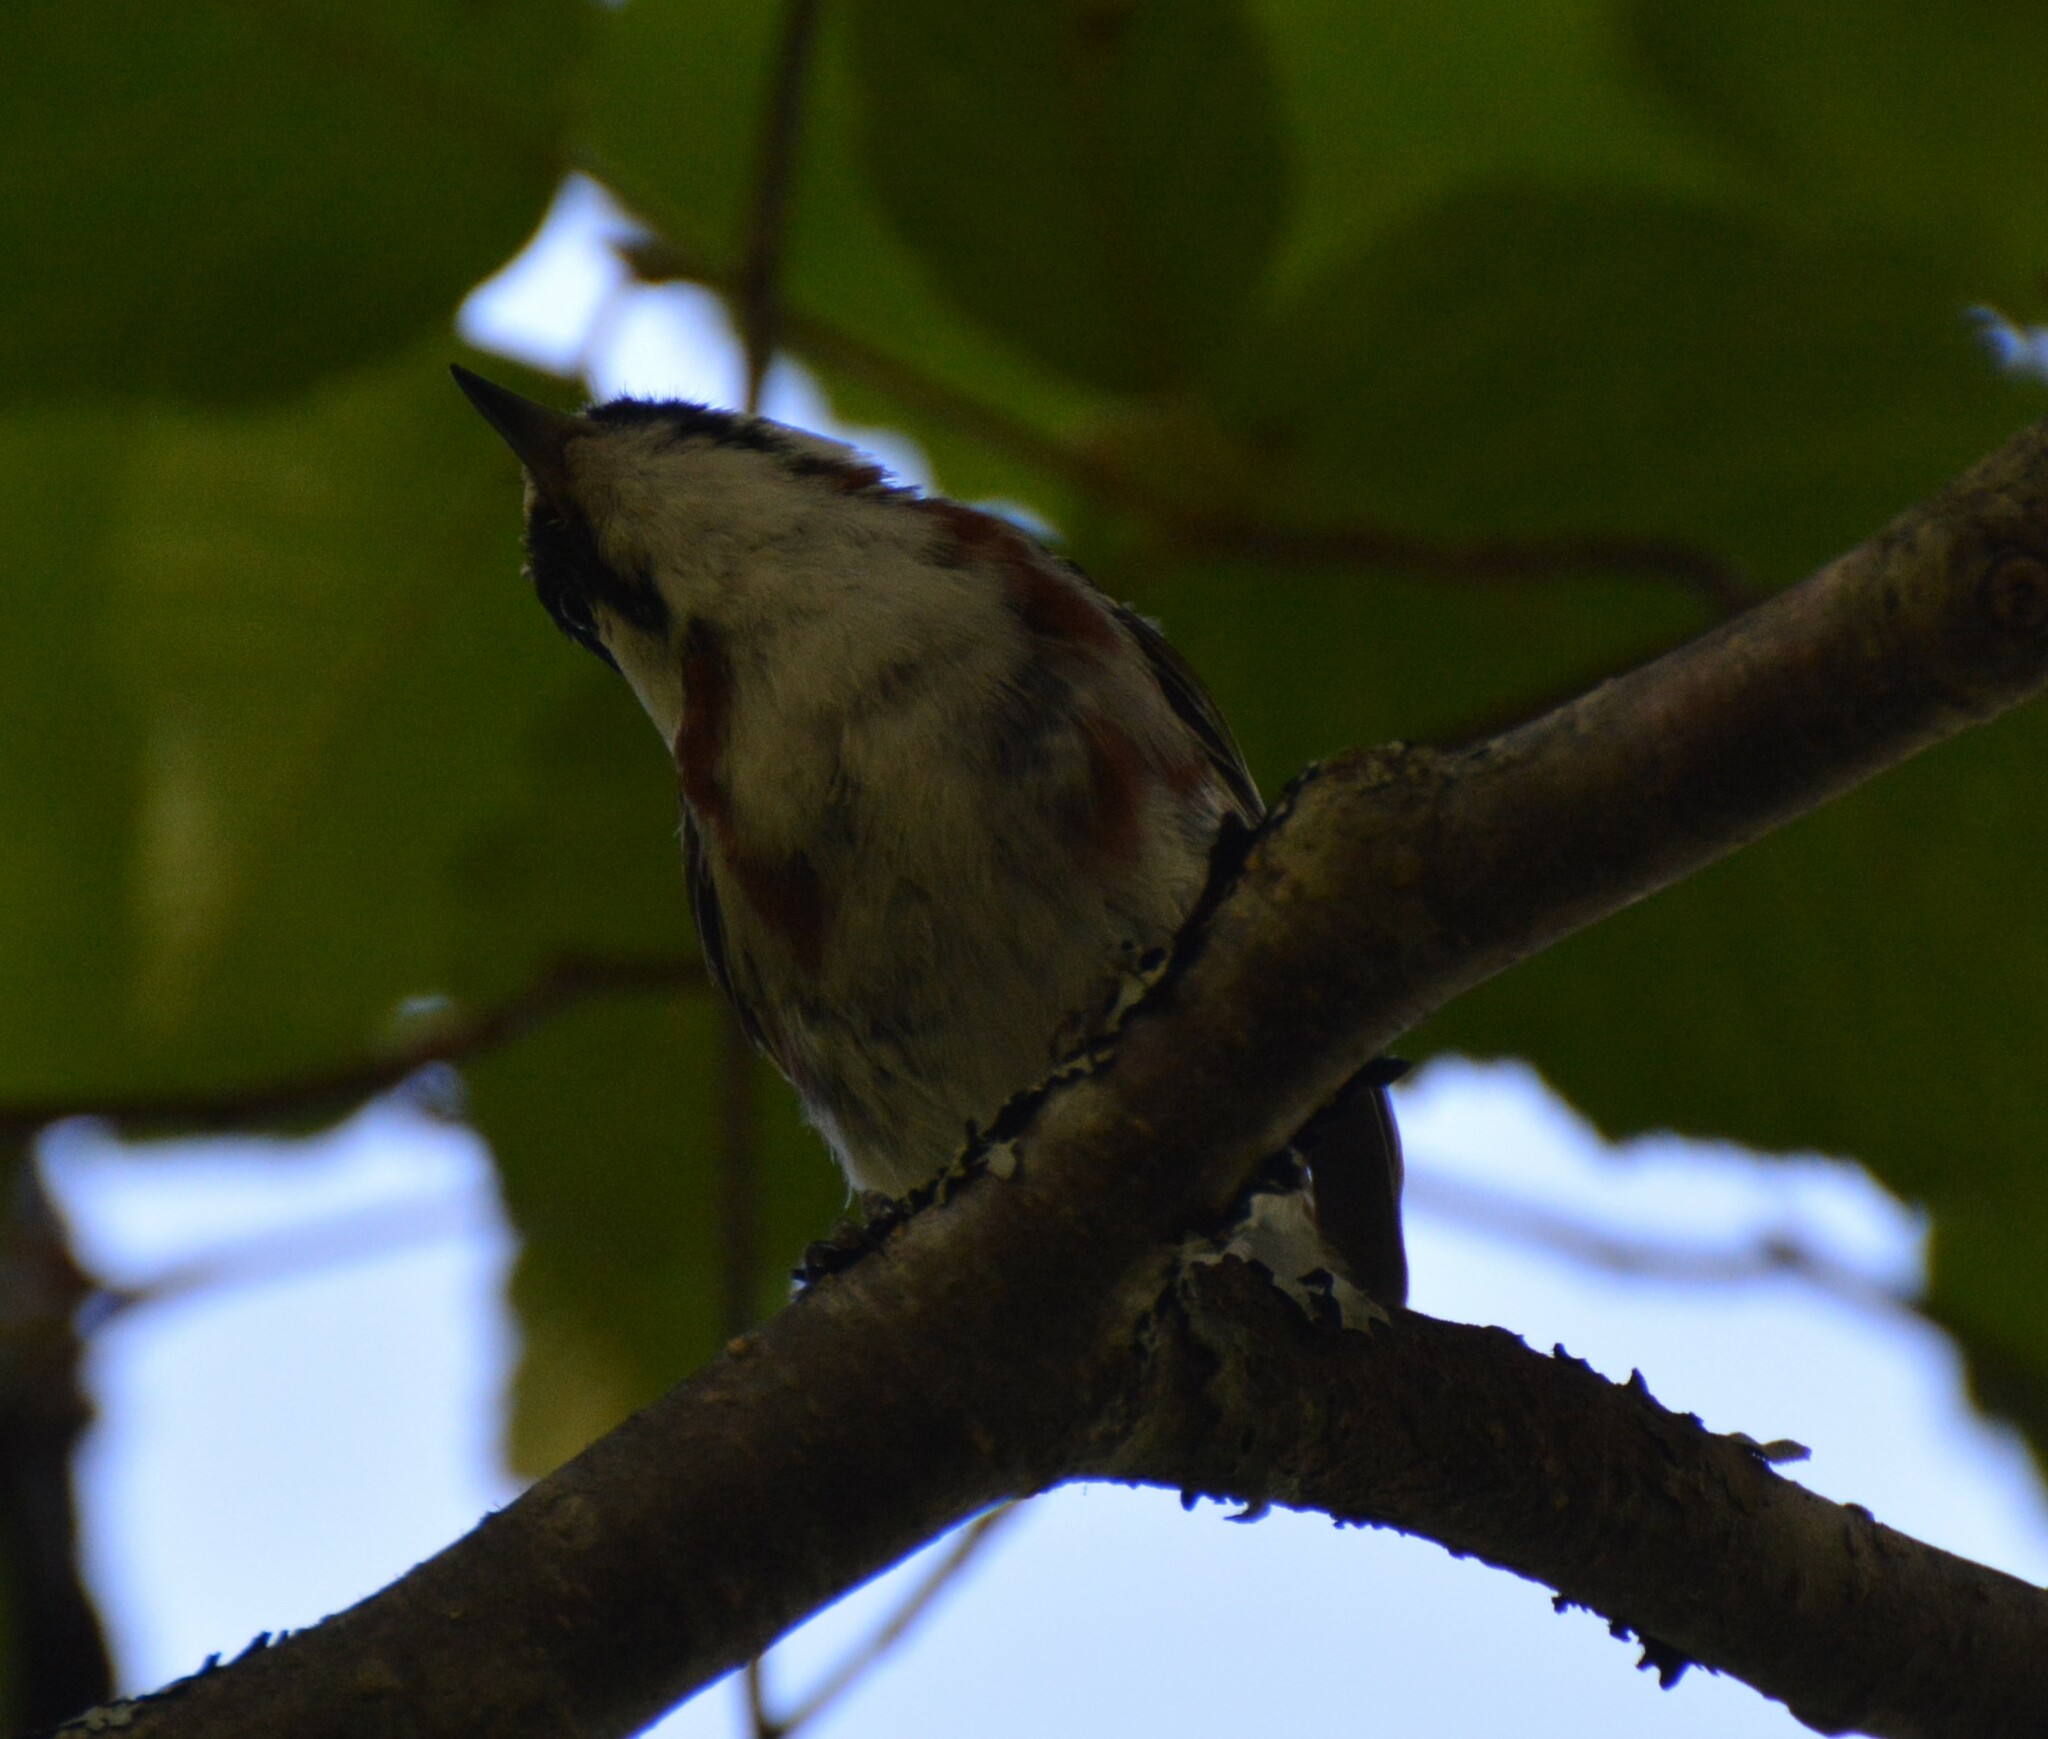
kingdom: Animalia
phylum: Chordata
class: Aves
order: Passeriformes
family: Parulidae
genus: Setophaga
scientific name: Setophaga pensylvanica
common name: Chestnut-sided warbler
